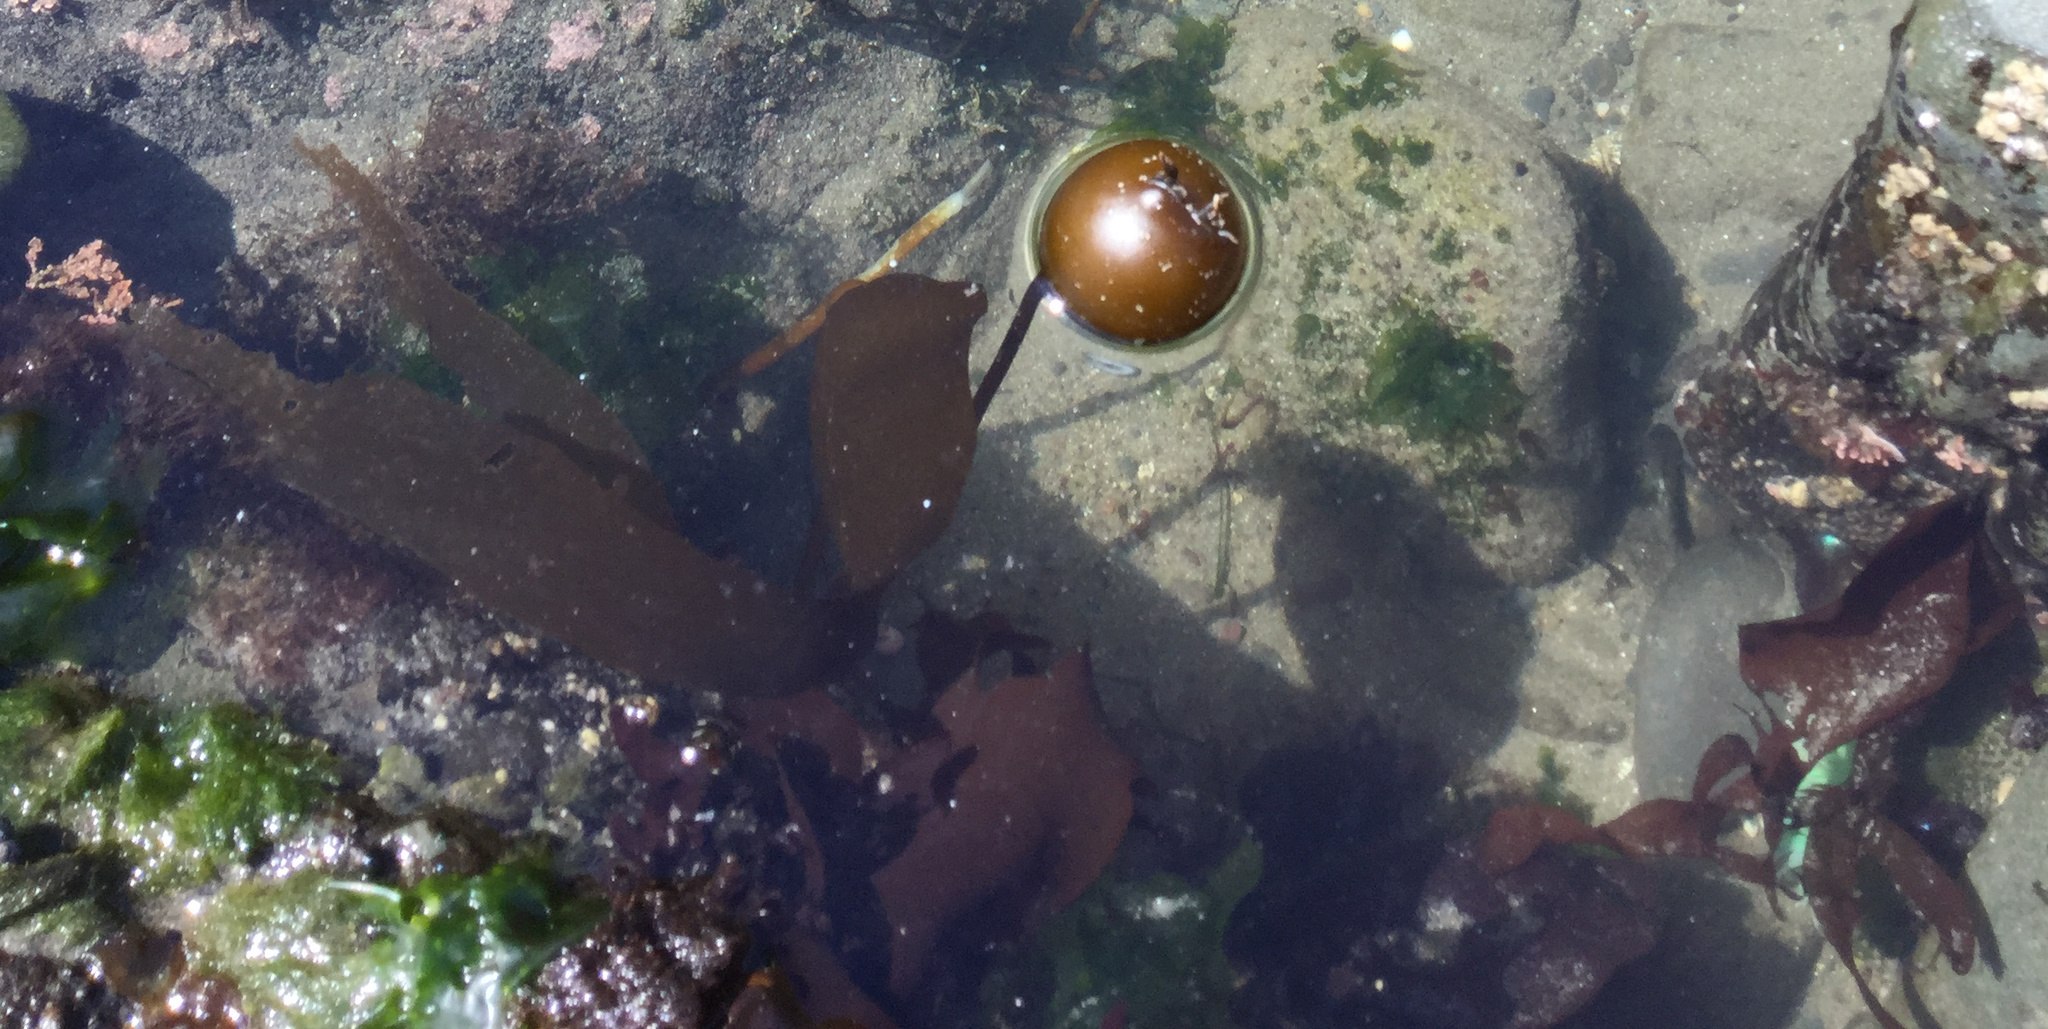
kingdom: Chromista
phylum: Ochrophyta
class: Phaeophyceae
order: Laminariales
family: Laminariaceae
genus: Nereocystis
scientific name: Nereocystis luetkeana
